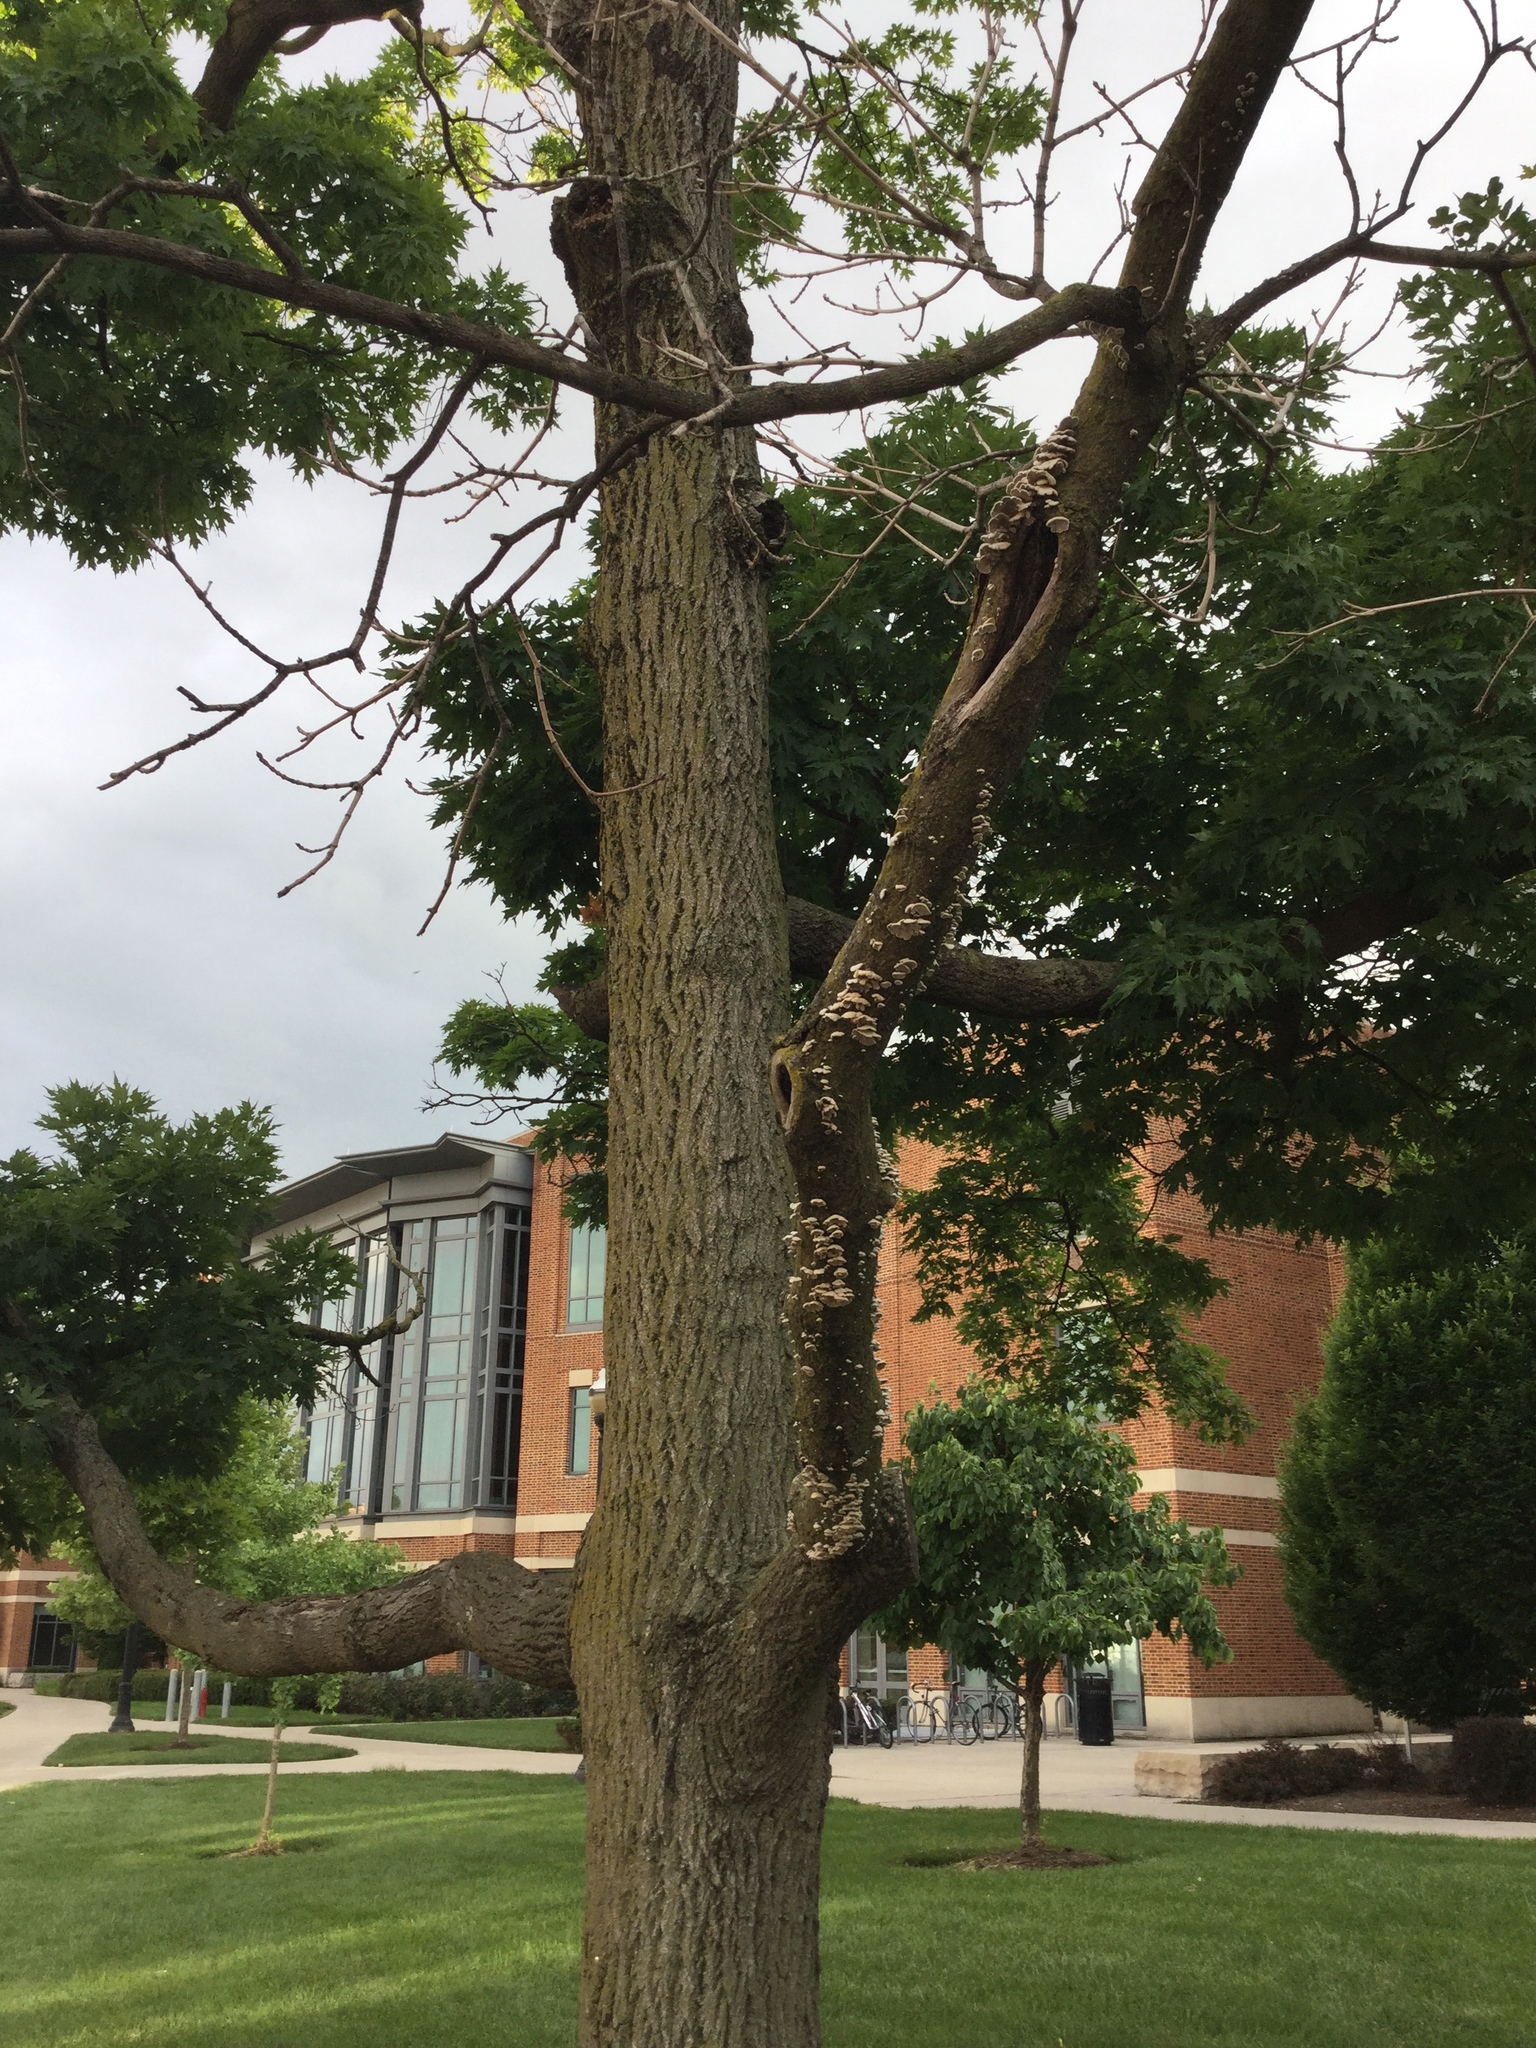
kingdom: Fungi
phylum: Basidiomycota
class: Agaricomycetes
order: Agaricales
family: Schizophyllaceae
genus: Schizophyllum
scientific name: Schizophyllum commune
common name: Common porecrust
